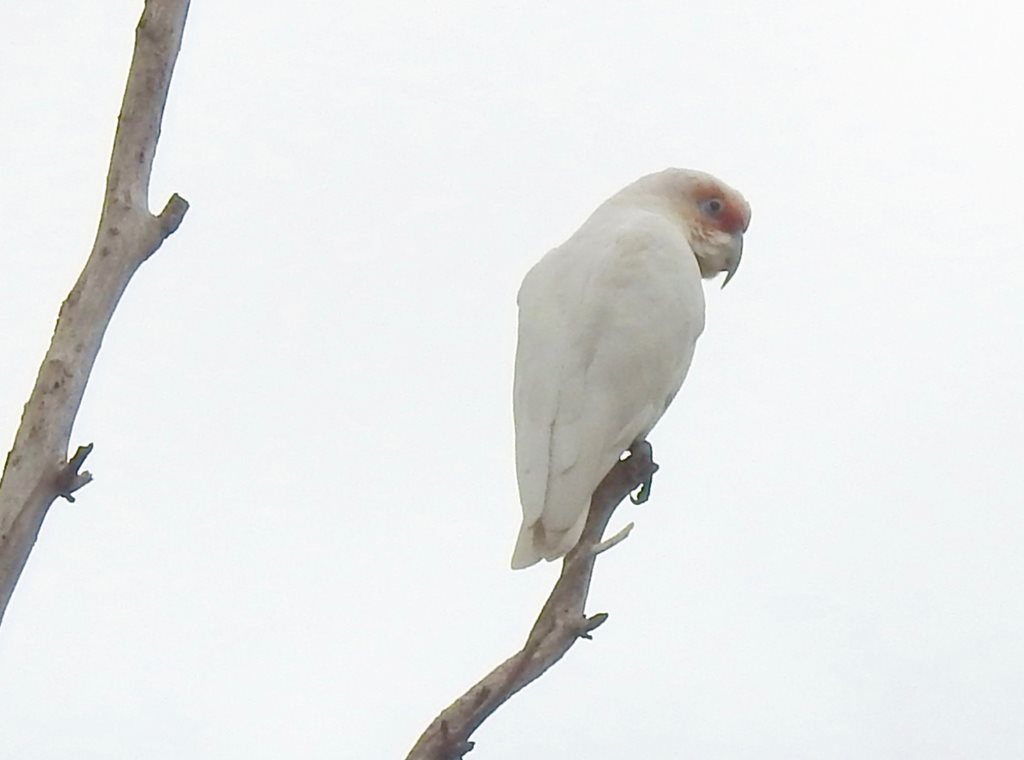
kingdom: Animalia
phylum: Chordata
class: Aves
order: Psittaciformes
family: Psittacidae
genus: Cacatua
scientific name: Cacatua tenuirostris
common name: Long-billed corella
